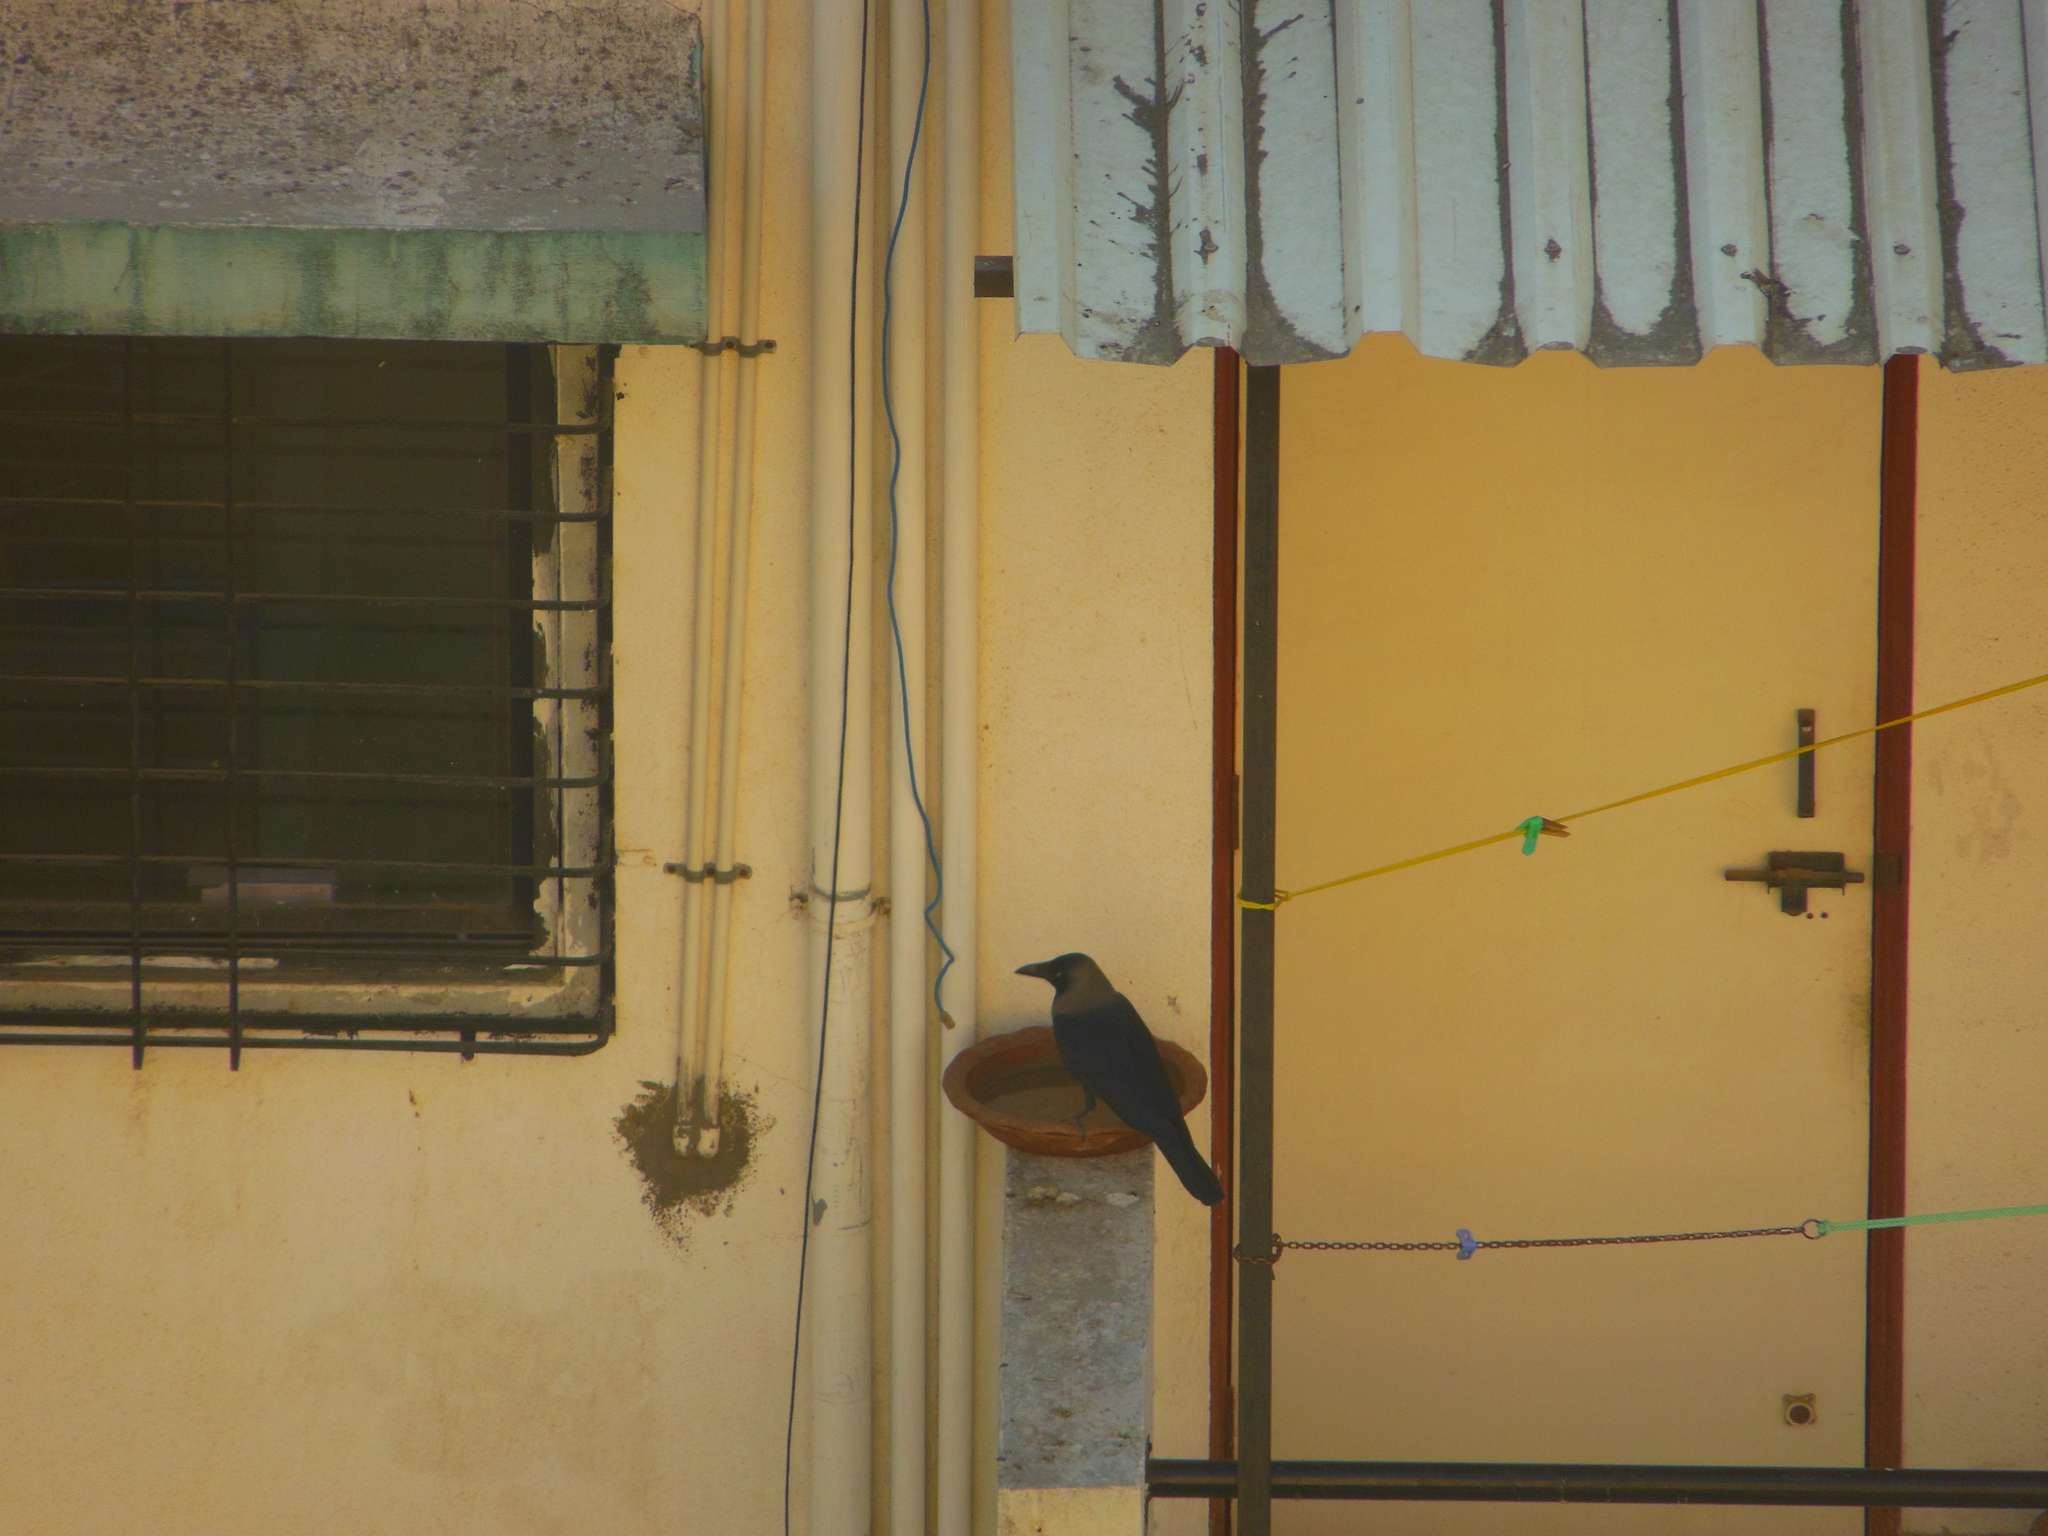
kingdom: Animalia
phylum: Chordata
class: Aves
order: Passeriformes
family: Corvidae
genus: Corvus
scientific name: Corvus splendens
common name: House crow
